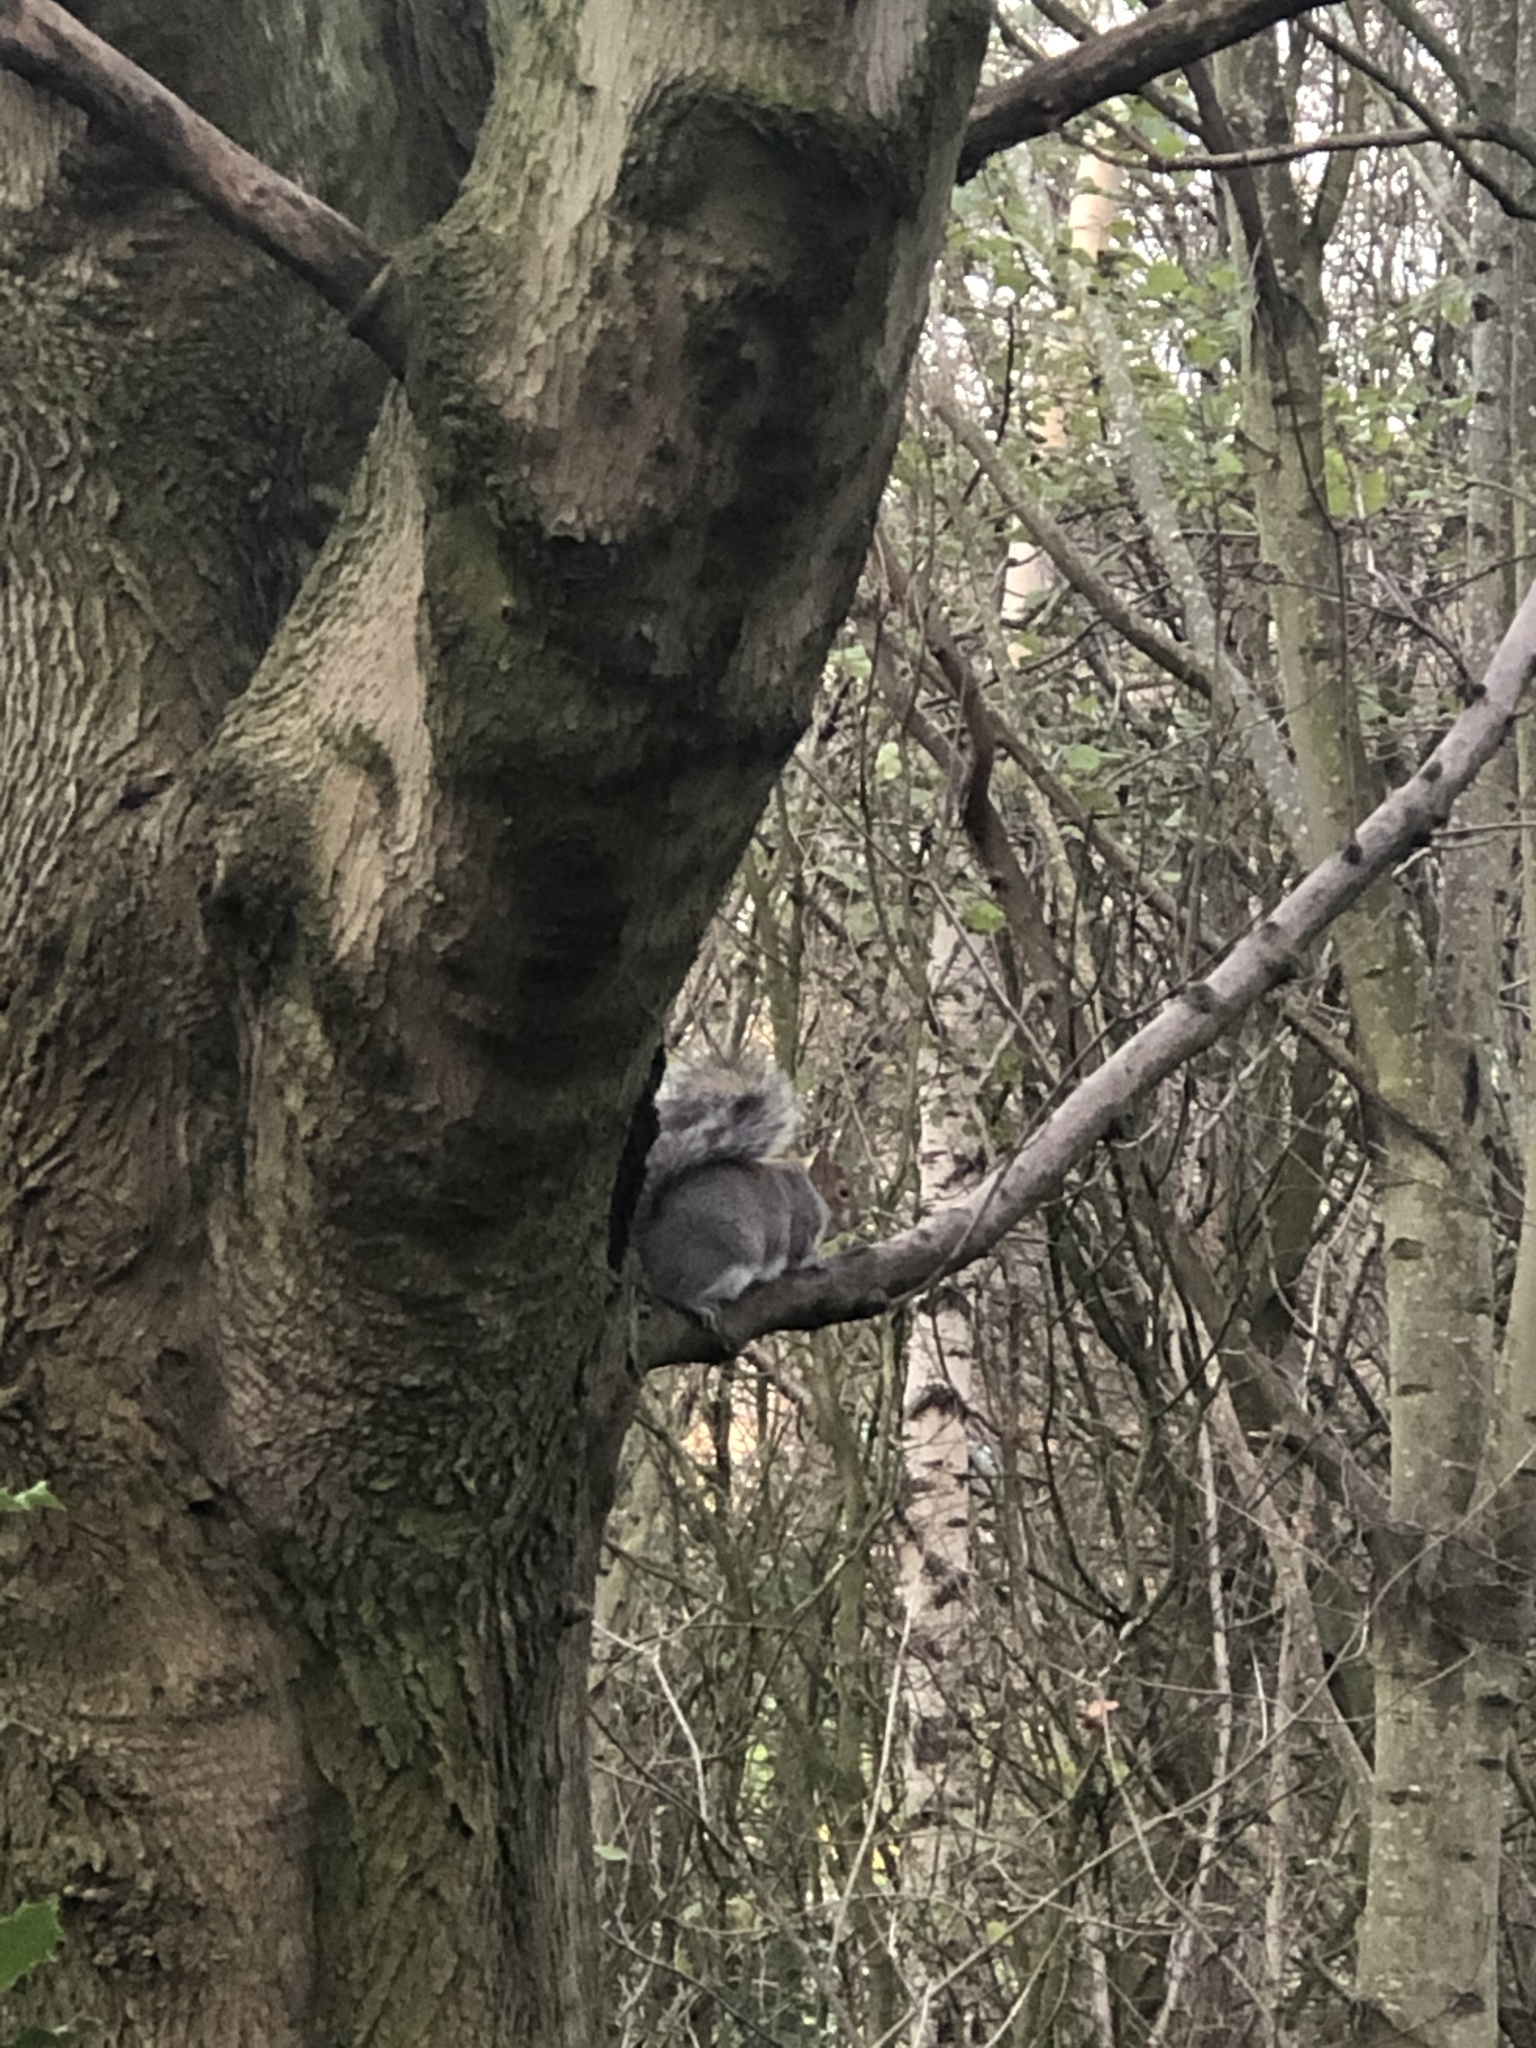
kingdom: Animalia
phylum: Chordata
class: Mammalia
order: Rodentia
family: Sciuridae
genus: Sciurus
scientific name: Sciurus carolinensis
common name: Eastern gray squirrel
